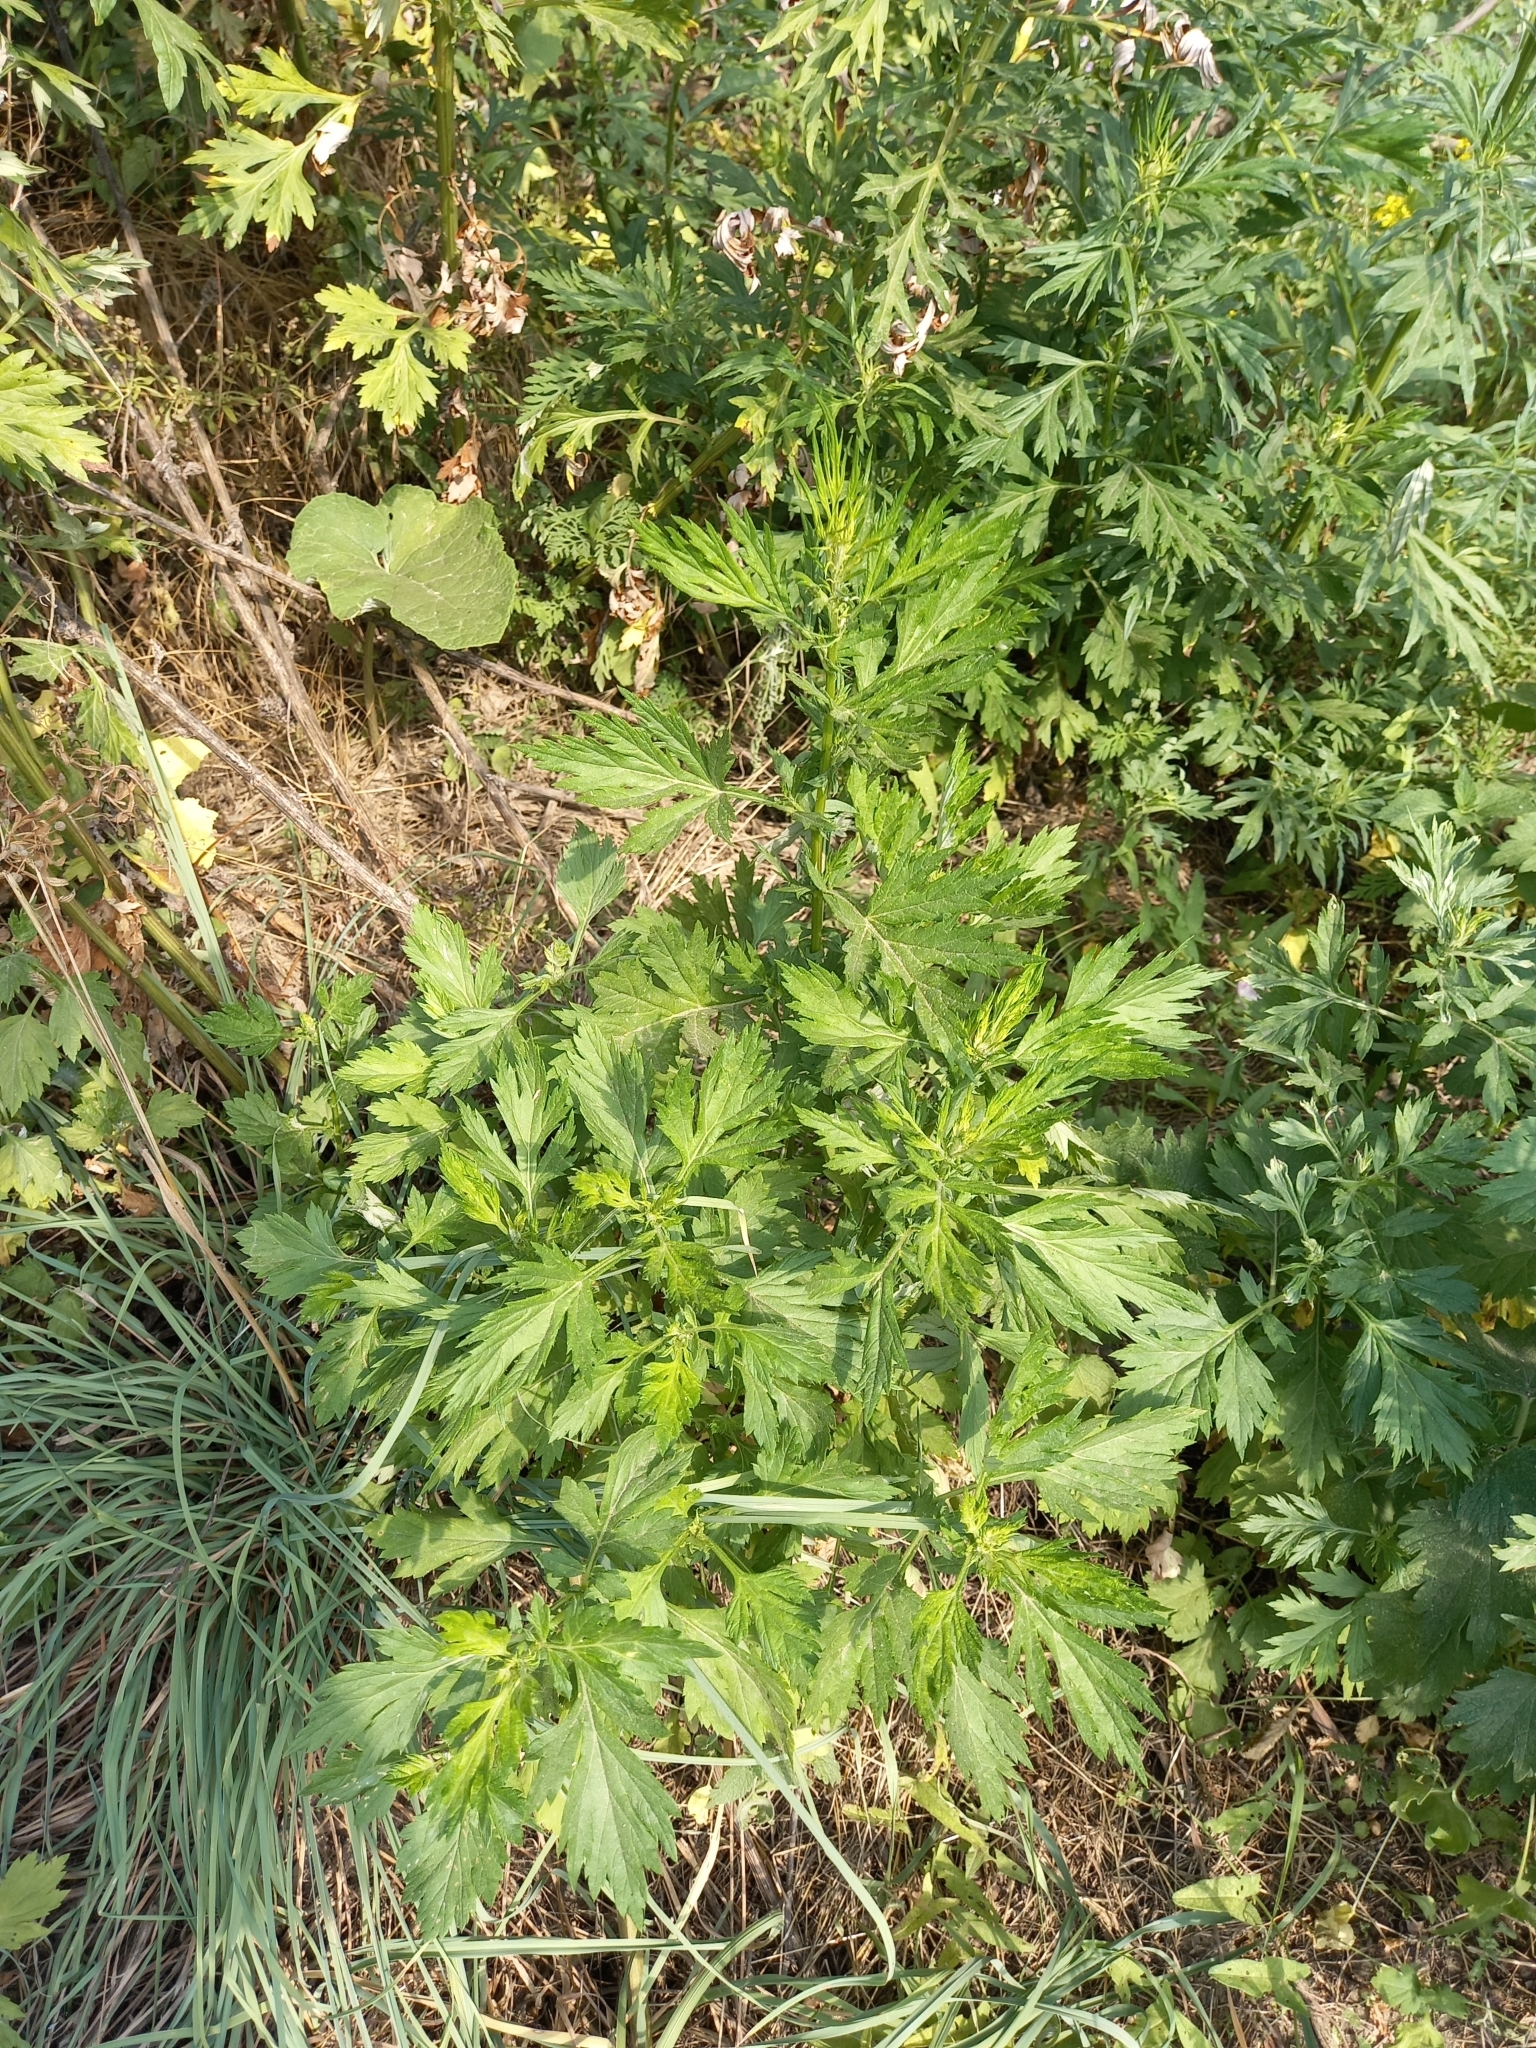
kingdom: Plantae
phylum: Tracheophyta
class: Magnoliopsida
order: Asterales
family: Asteraceae
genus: Artemisia
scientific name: Artemisia vulgaris
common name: Mugwort
